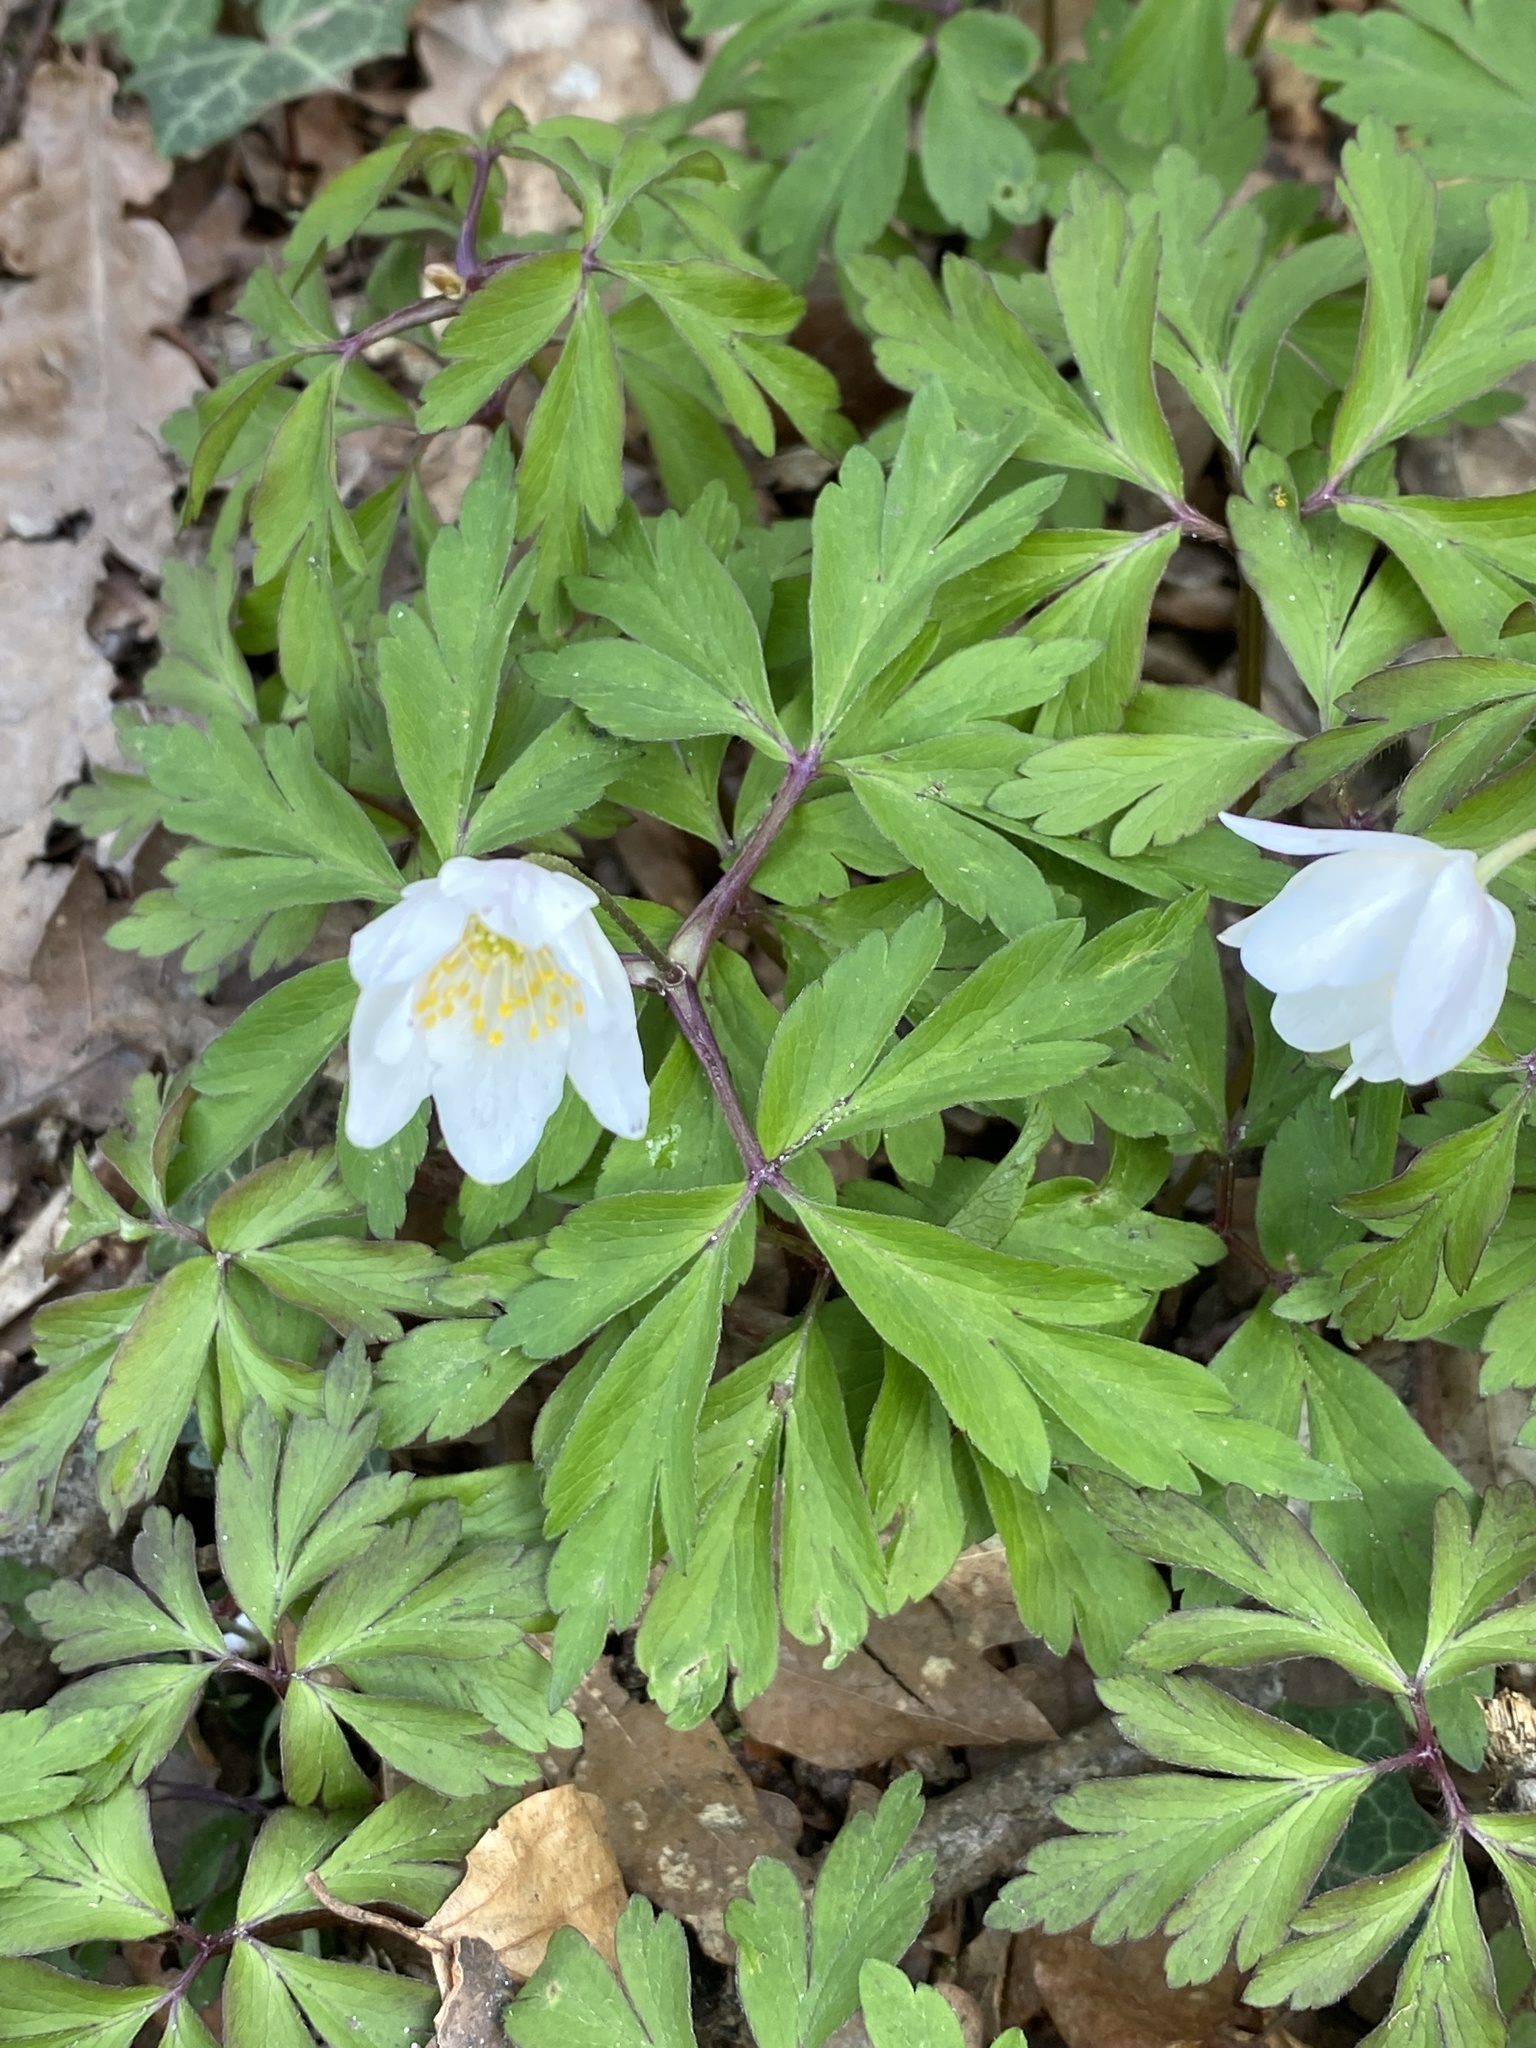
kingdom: Plantae
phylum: Tracheophyta
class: Magnoliopsida
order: Ranunculales
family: Ranunculaceae
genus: Anemone
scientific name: Anemone nemorosa
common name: Wood anemone
